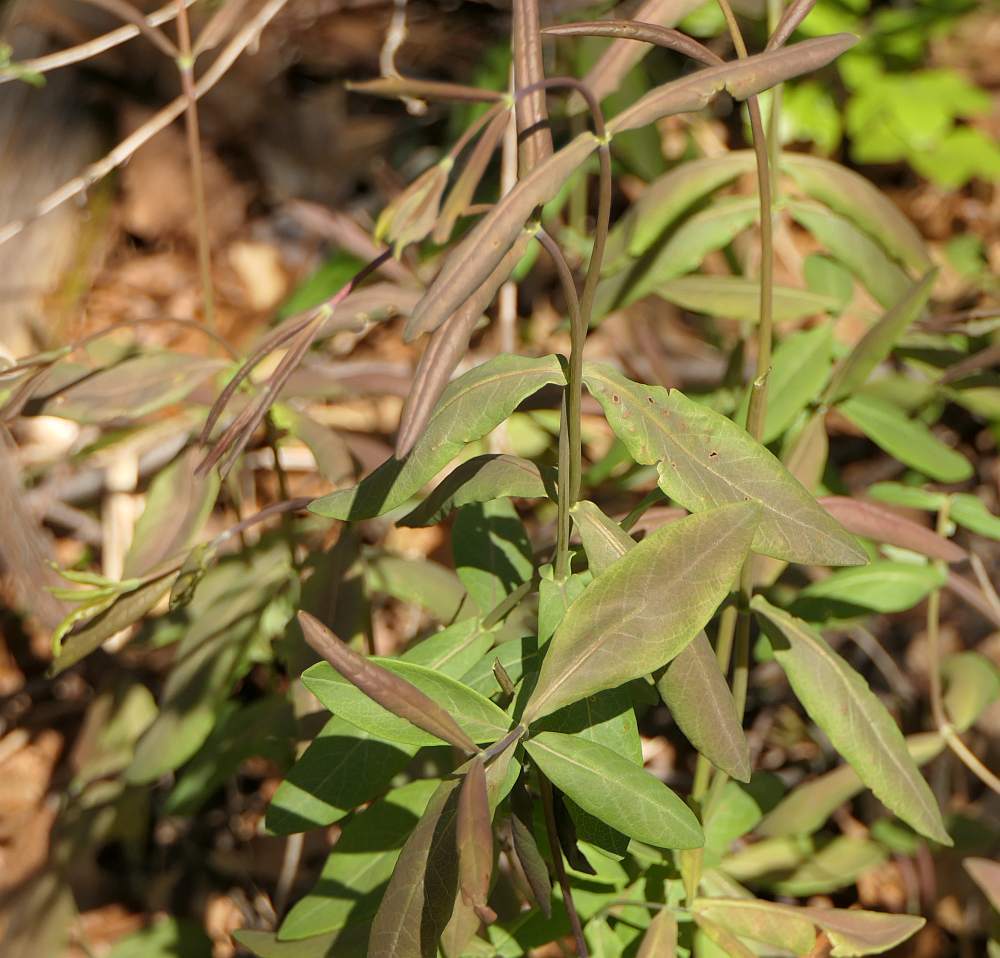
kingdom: Plantae
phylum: Tracheophyta
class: Magnoliopsida
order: Dipsacales
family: Caprifoliaceae
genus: Lonicera
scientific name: Lonicera dioica
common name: Limber honeysuckle
